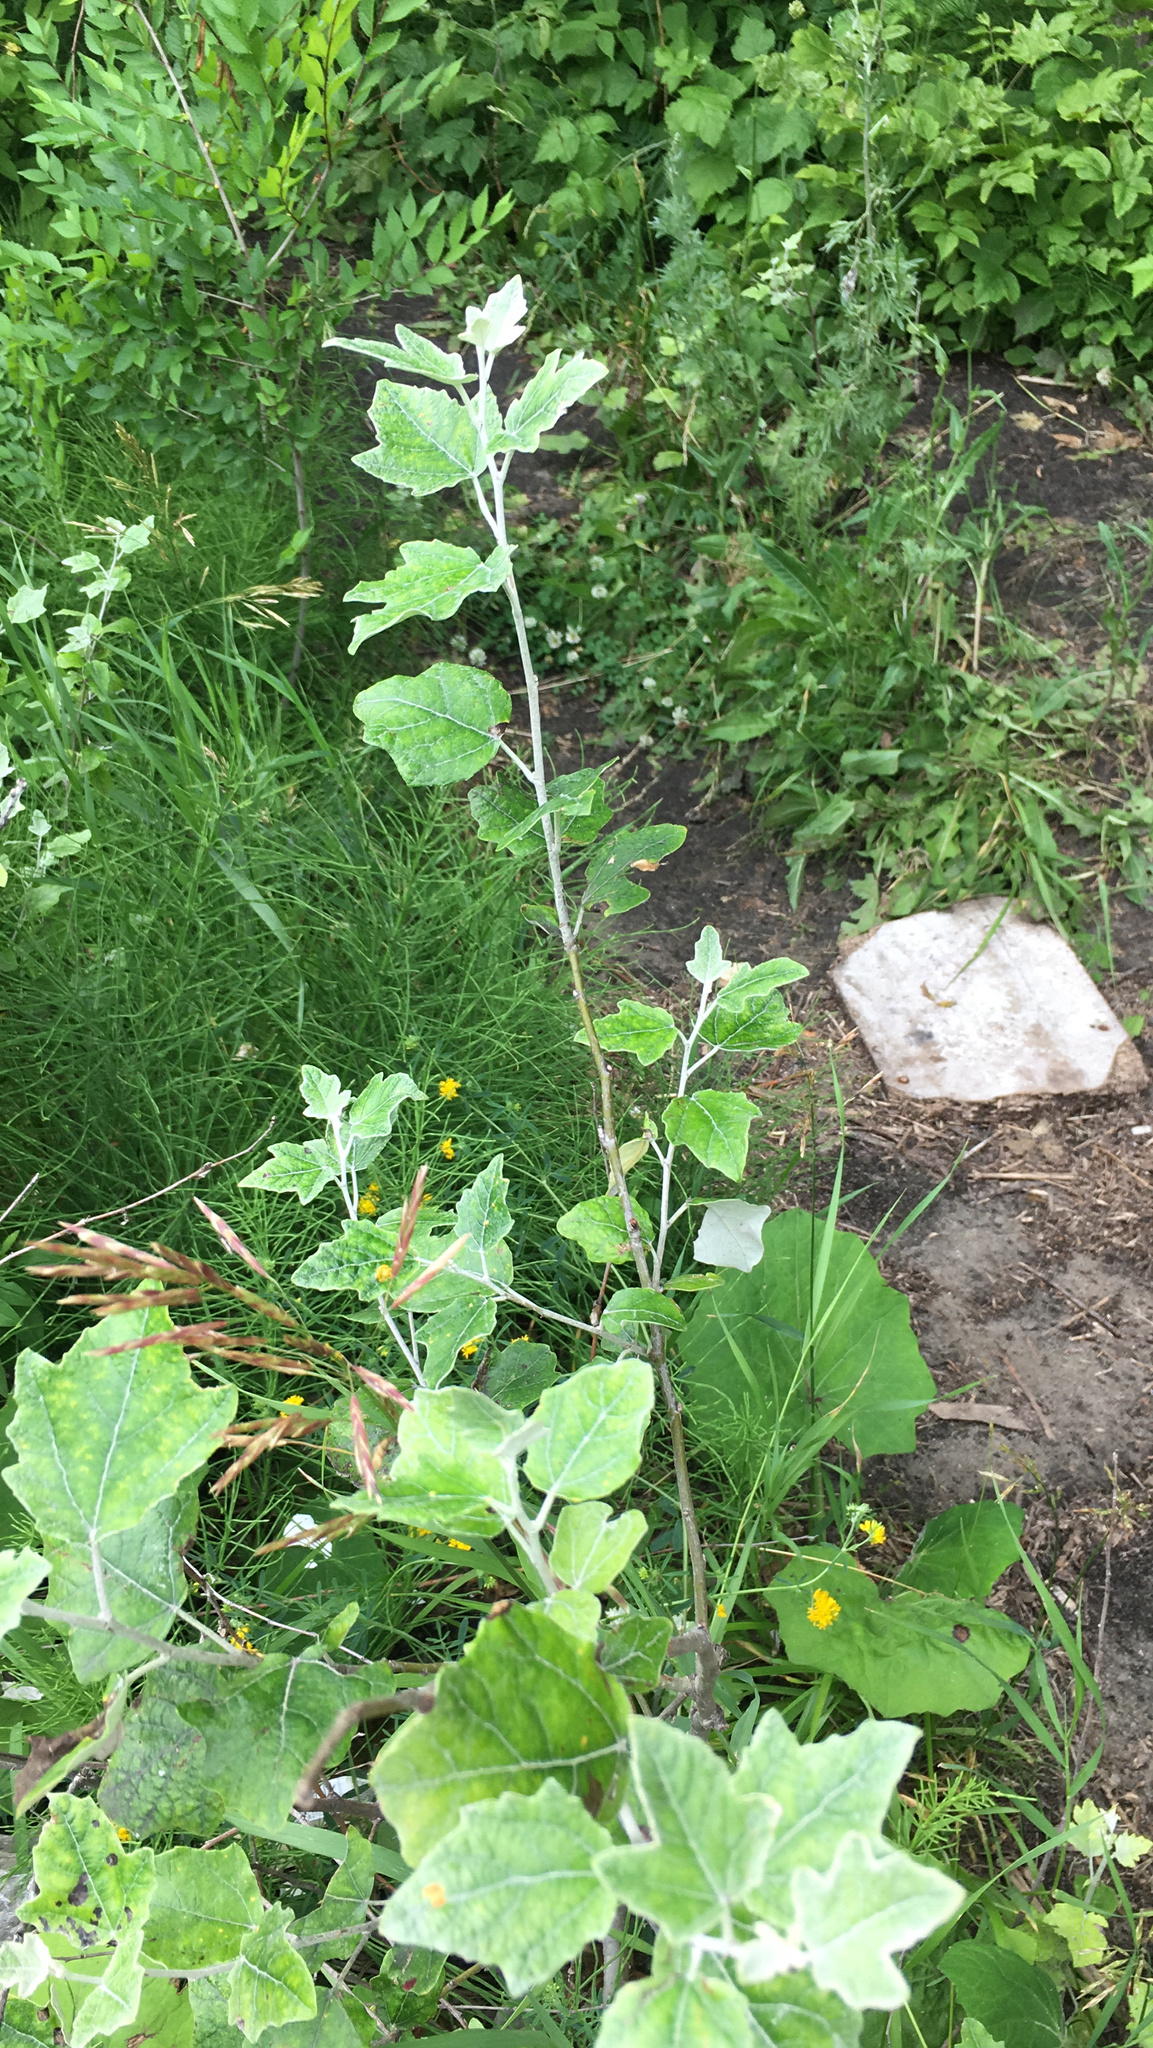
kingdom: Plantae
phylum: Tracheophyta
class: Magnoliopsida
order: Malpighiales
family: Salicaceae
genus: Populus
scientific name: Populus alba
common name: White poplar
